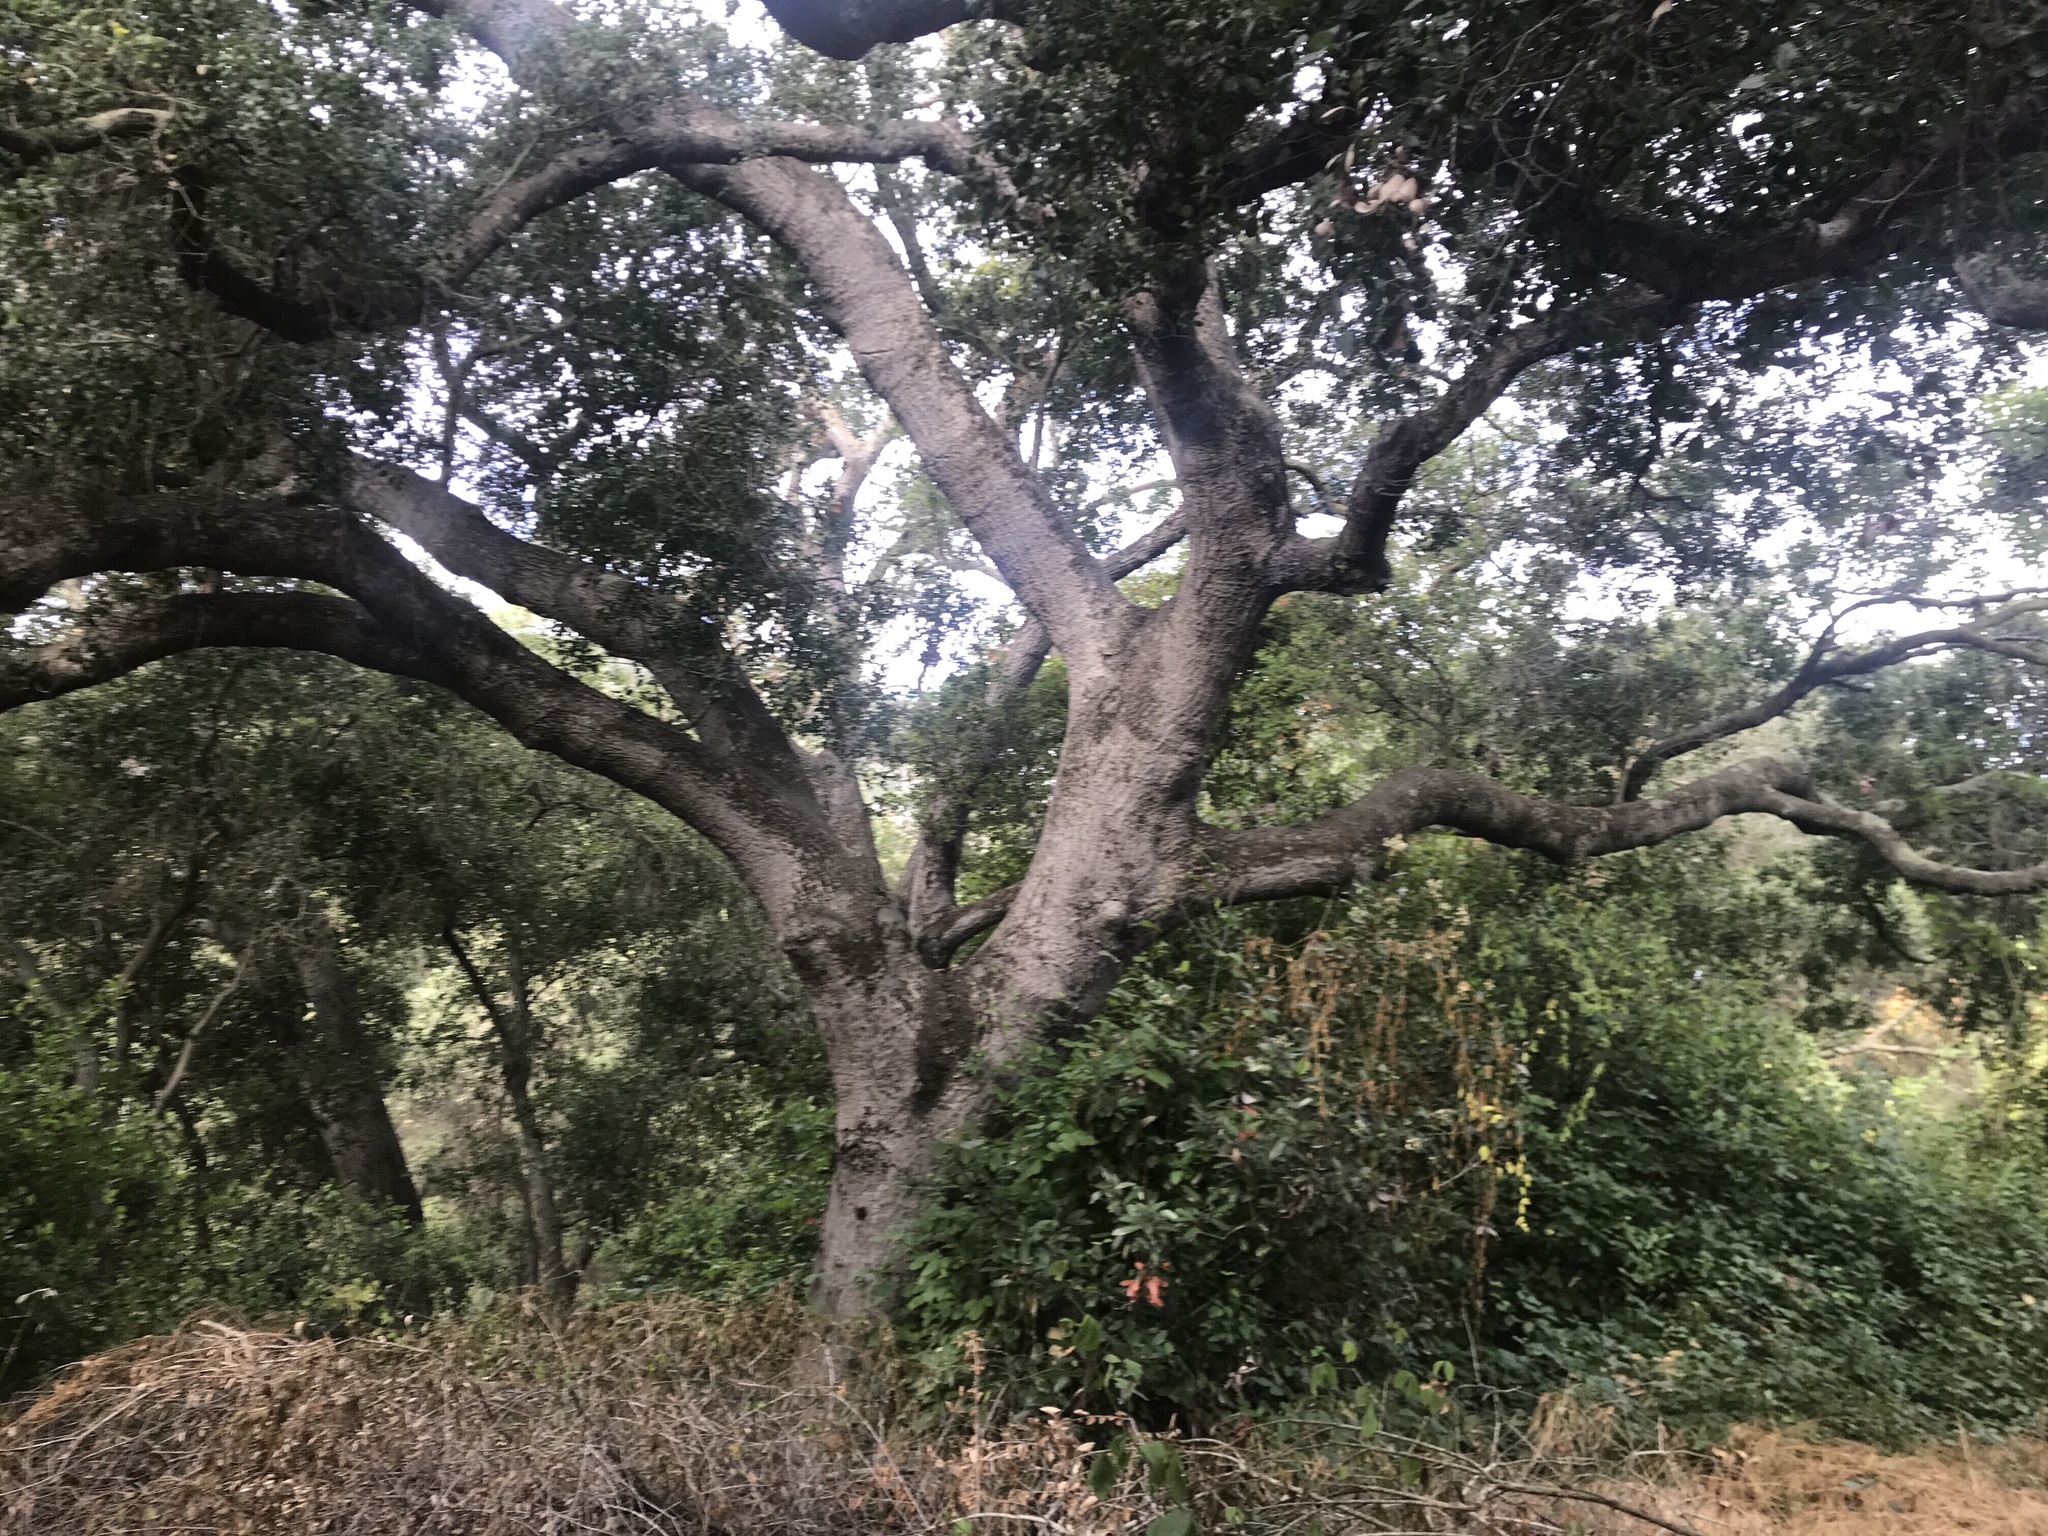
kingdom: Plantae
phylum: Tracheophyta
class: Magnoliopsida
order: Fagales
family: Fagaceae
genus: Quercus
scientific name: Quercus agrifolia
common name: California live oak
